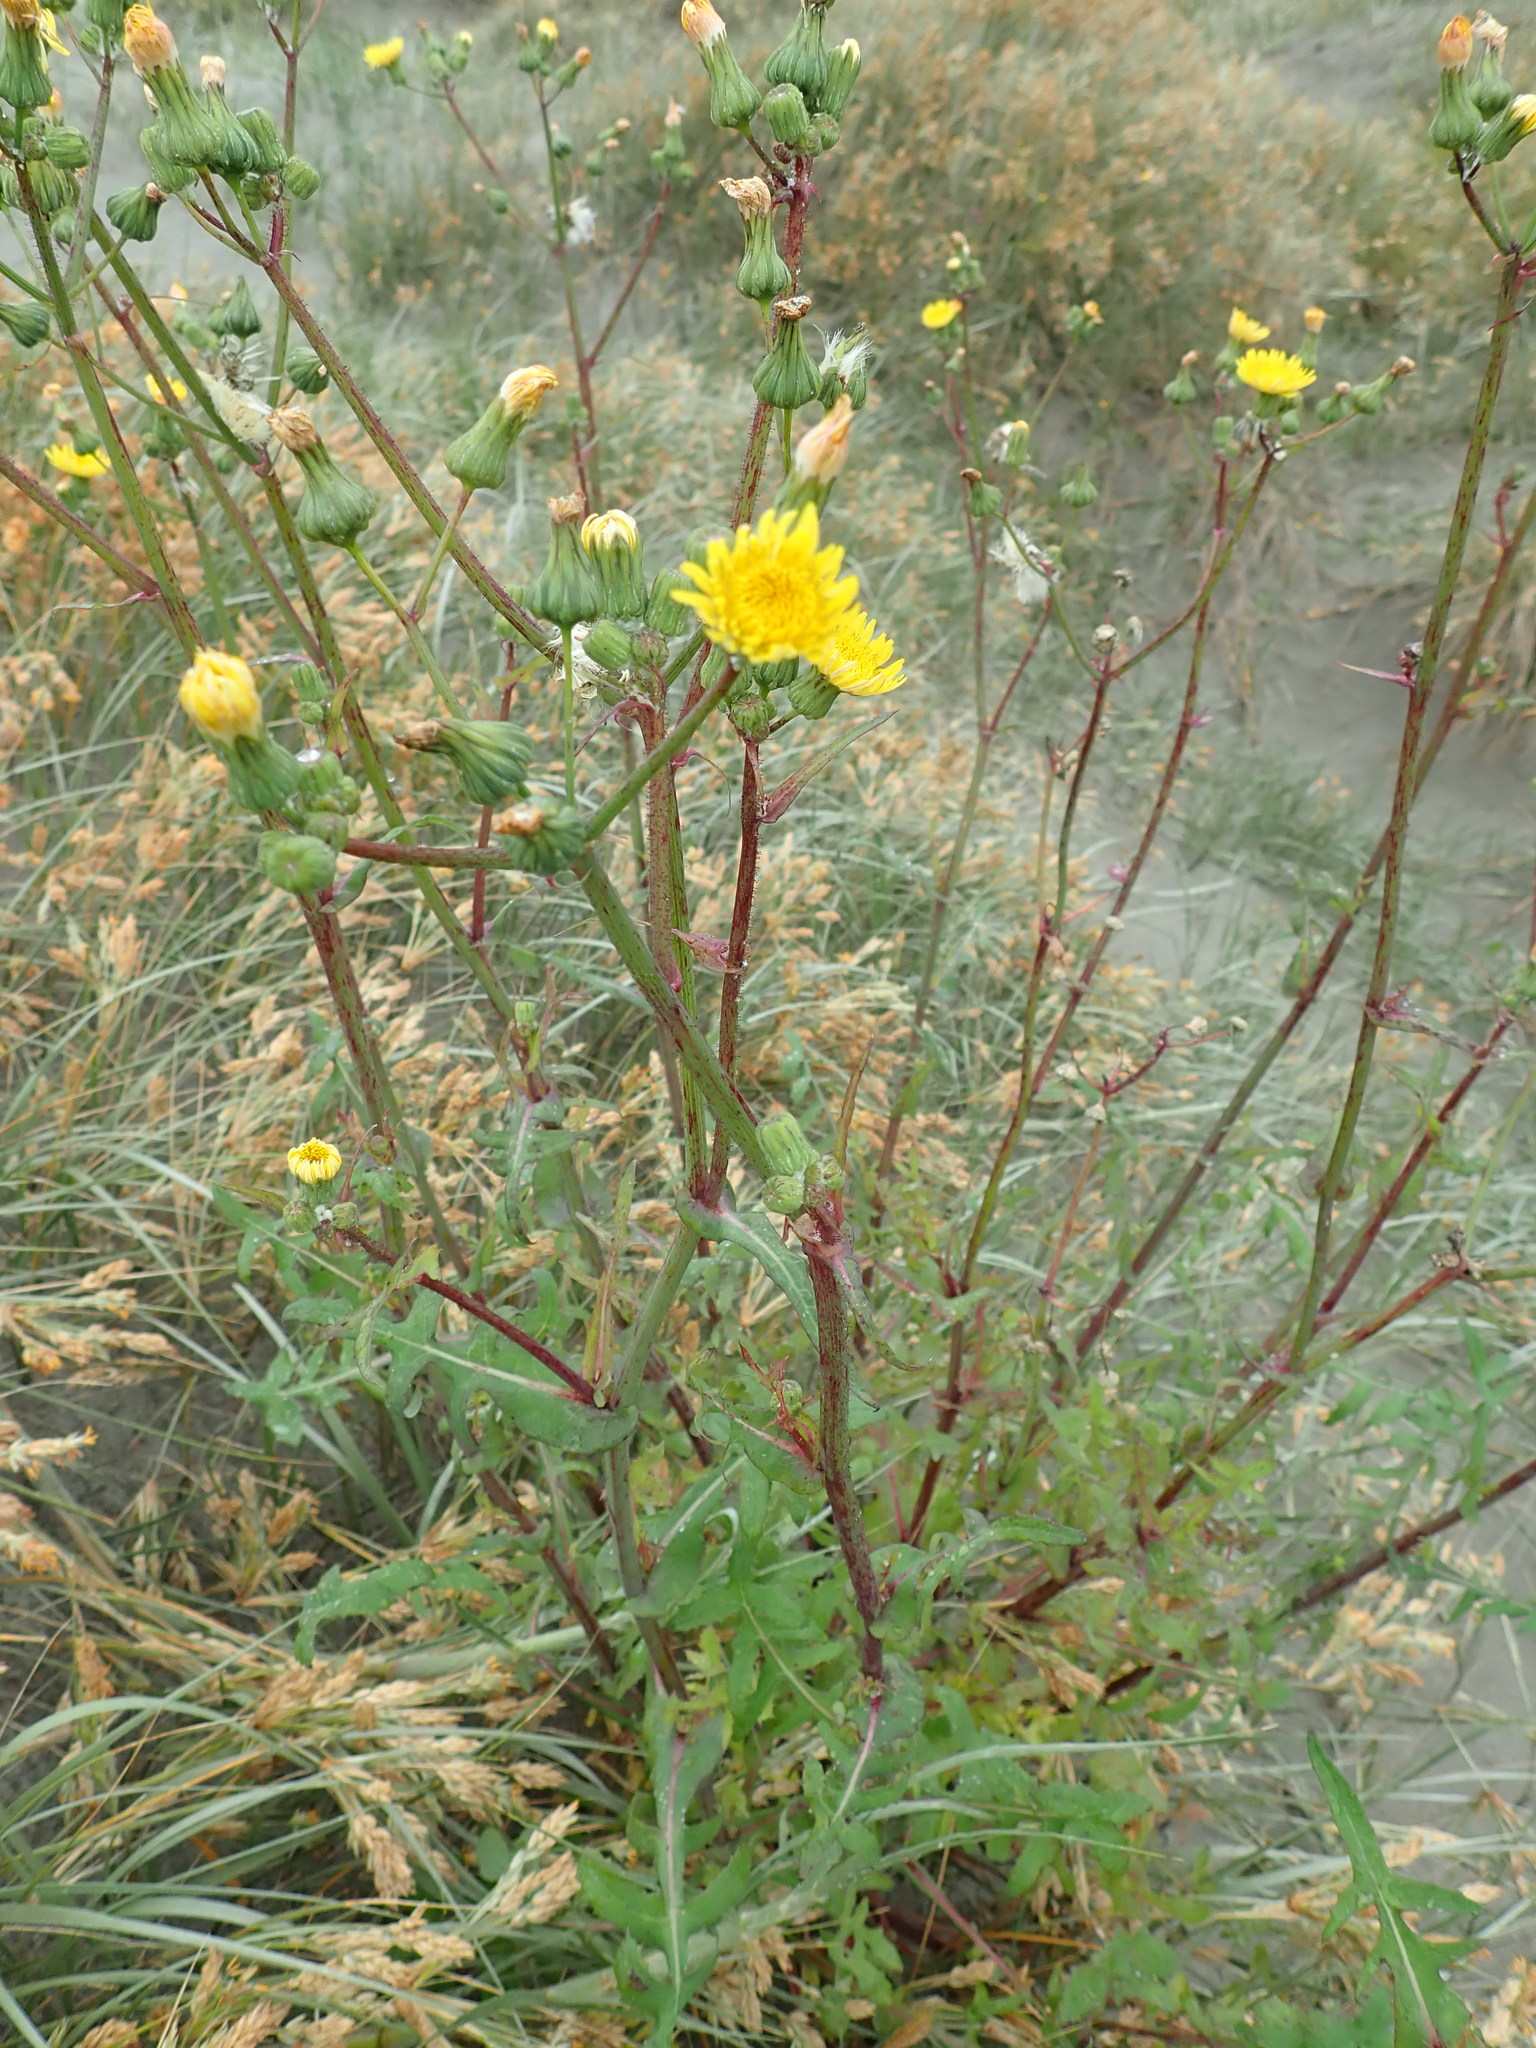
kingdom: Plantae
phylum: Tracheophyta
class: Magnoliopsida
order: Asterales
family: Asteraceae
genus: Sonchus
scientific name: Sonchus oleraceus
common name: Common sowthistle
